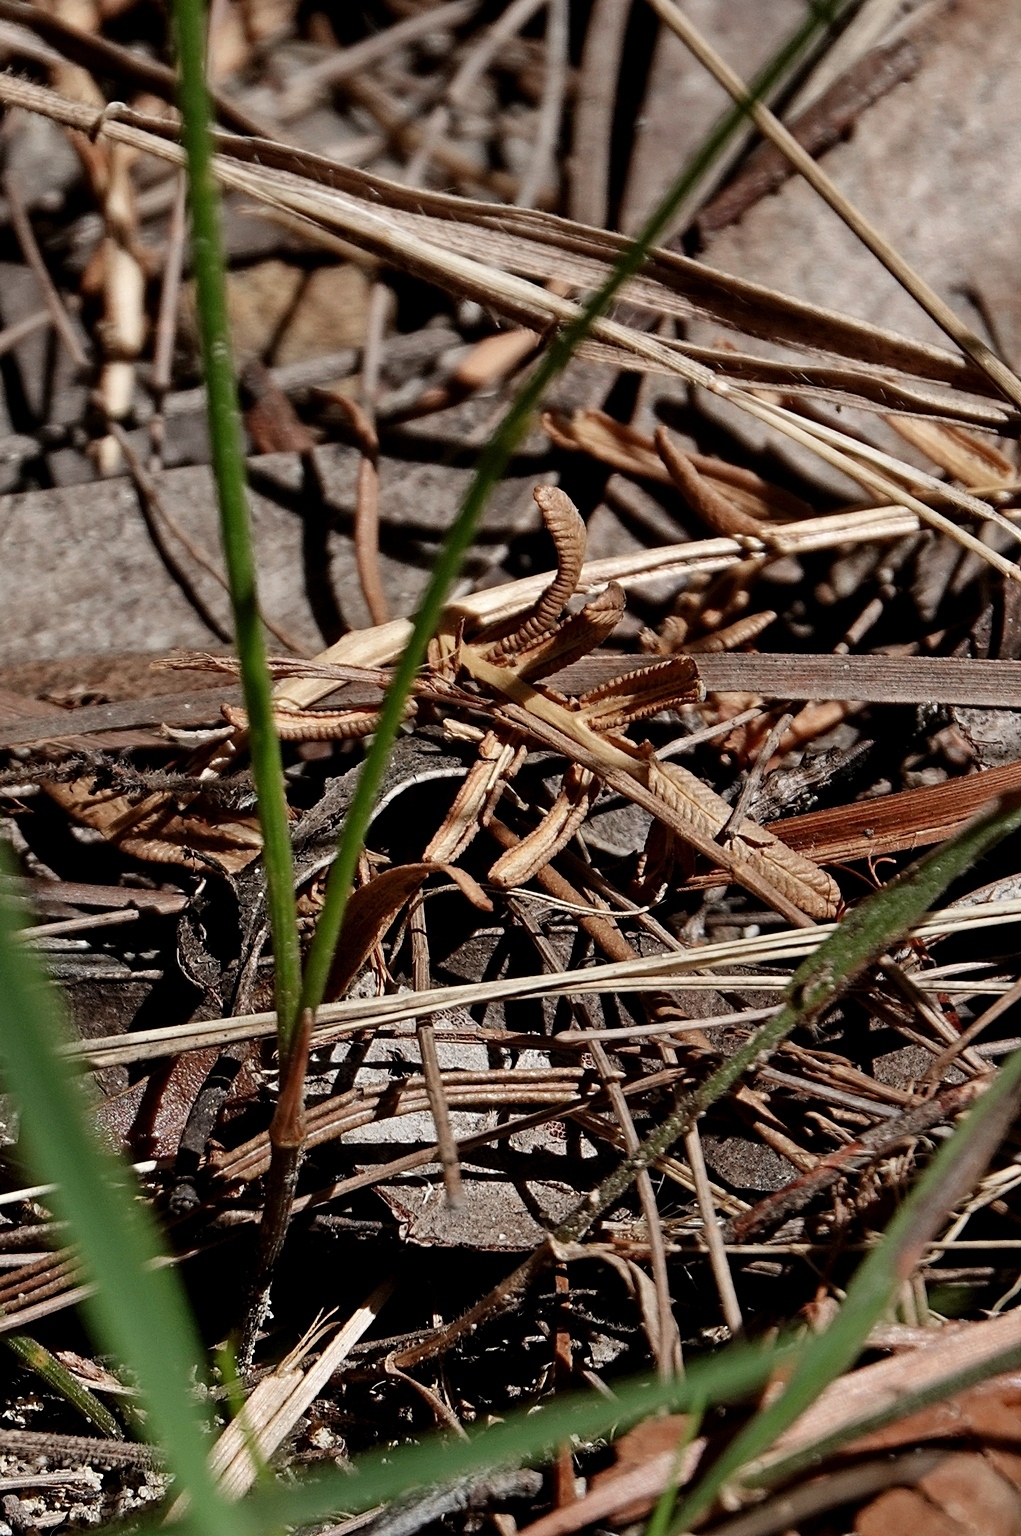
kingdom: Plantae
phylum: Tracheophyta
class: Liliopsida
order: Asparagales
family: Asparagaceae
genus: Thysanotus
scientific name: Thysanotus juncifolius
